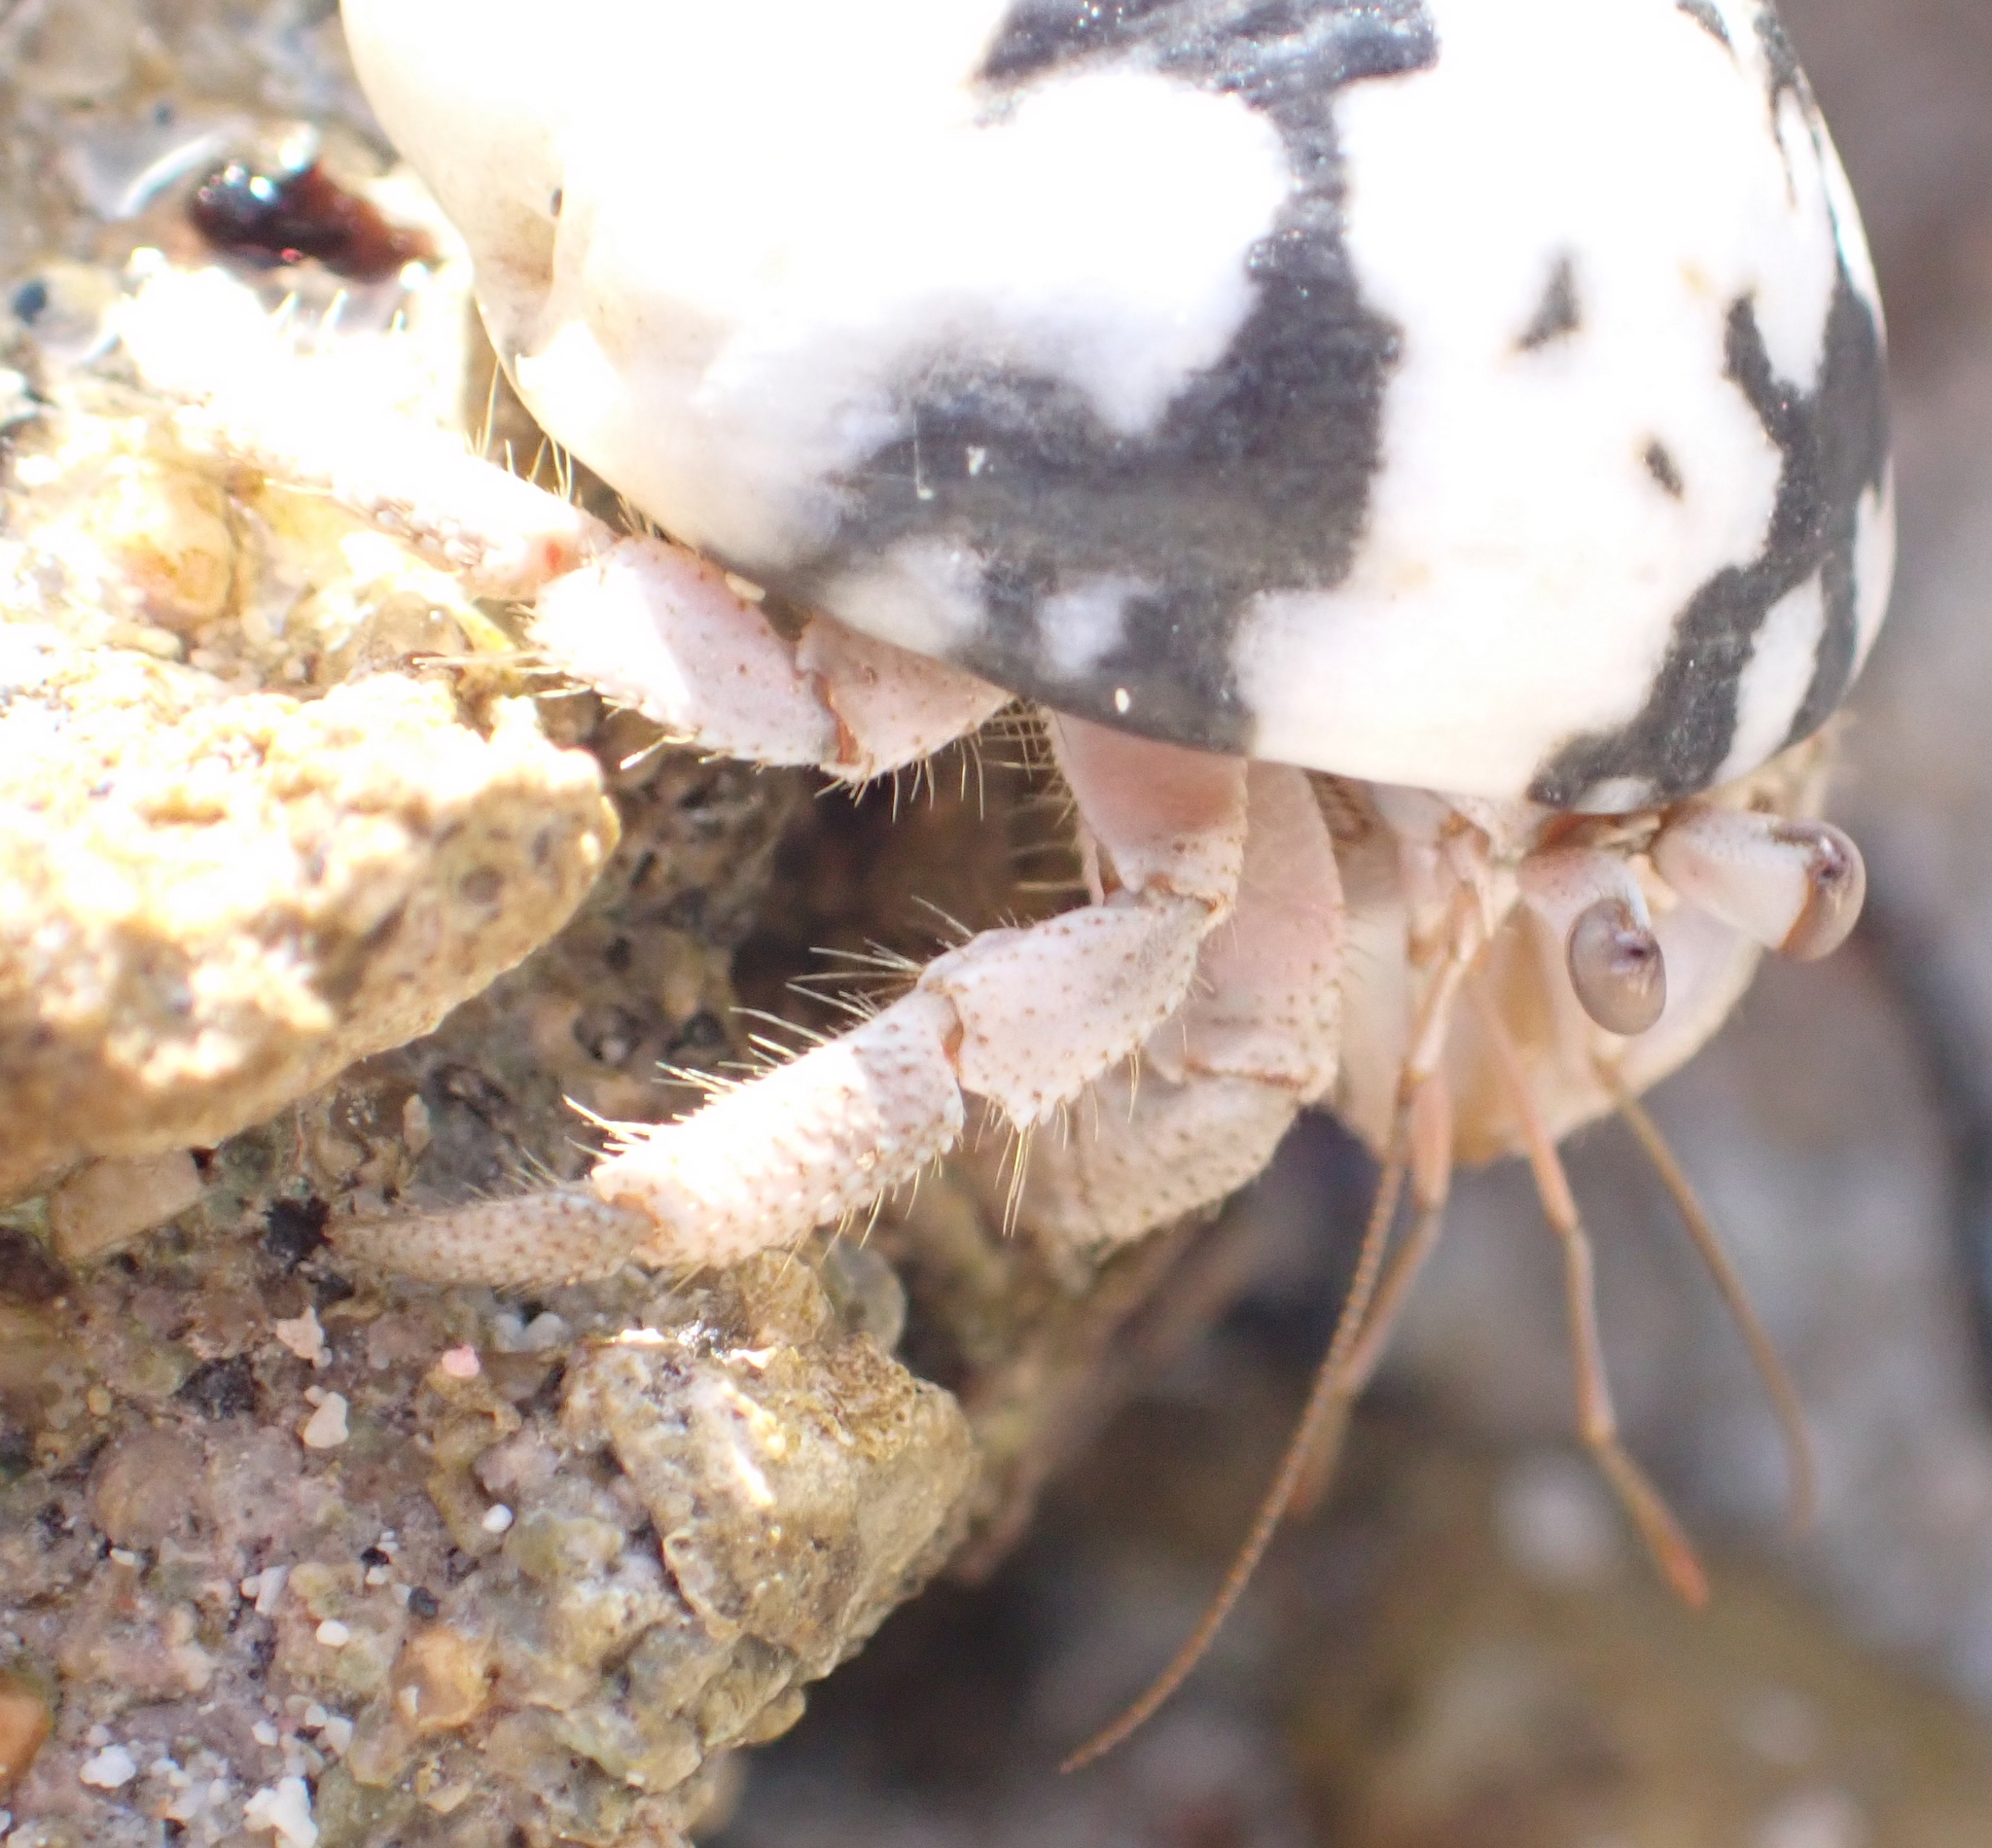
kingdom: Animalia
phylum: Arthropoda
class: Malacostraca
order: Decapoda
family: Coenobitidae
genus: Coenobita
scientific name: Coenobita scaevola
